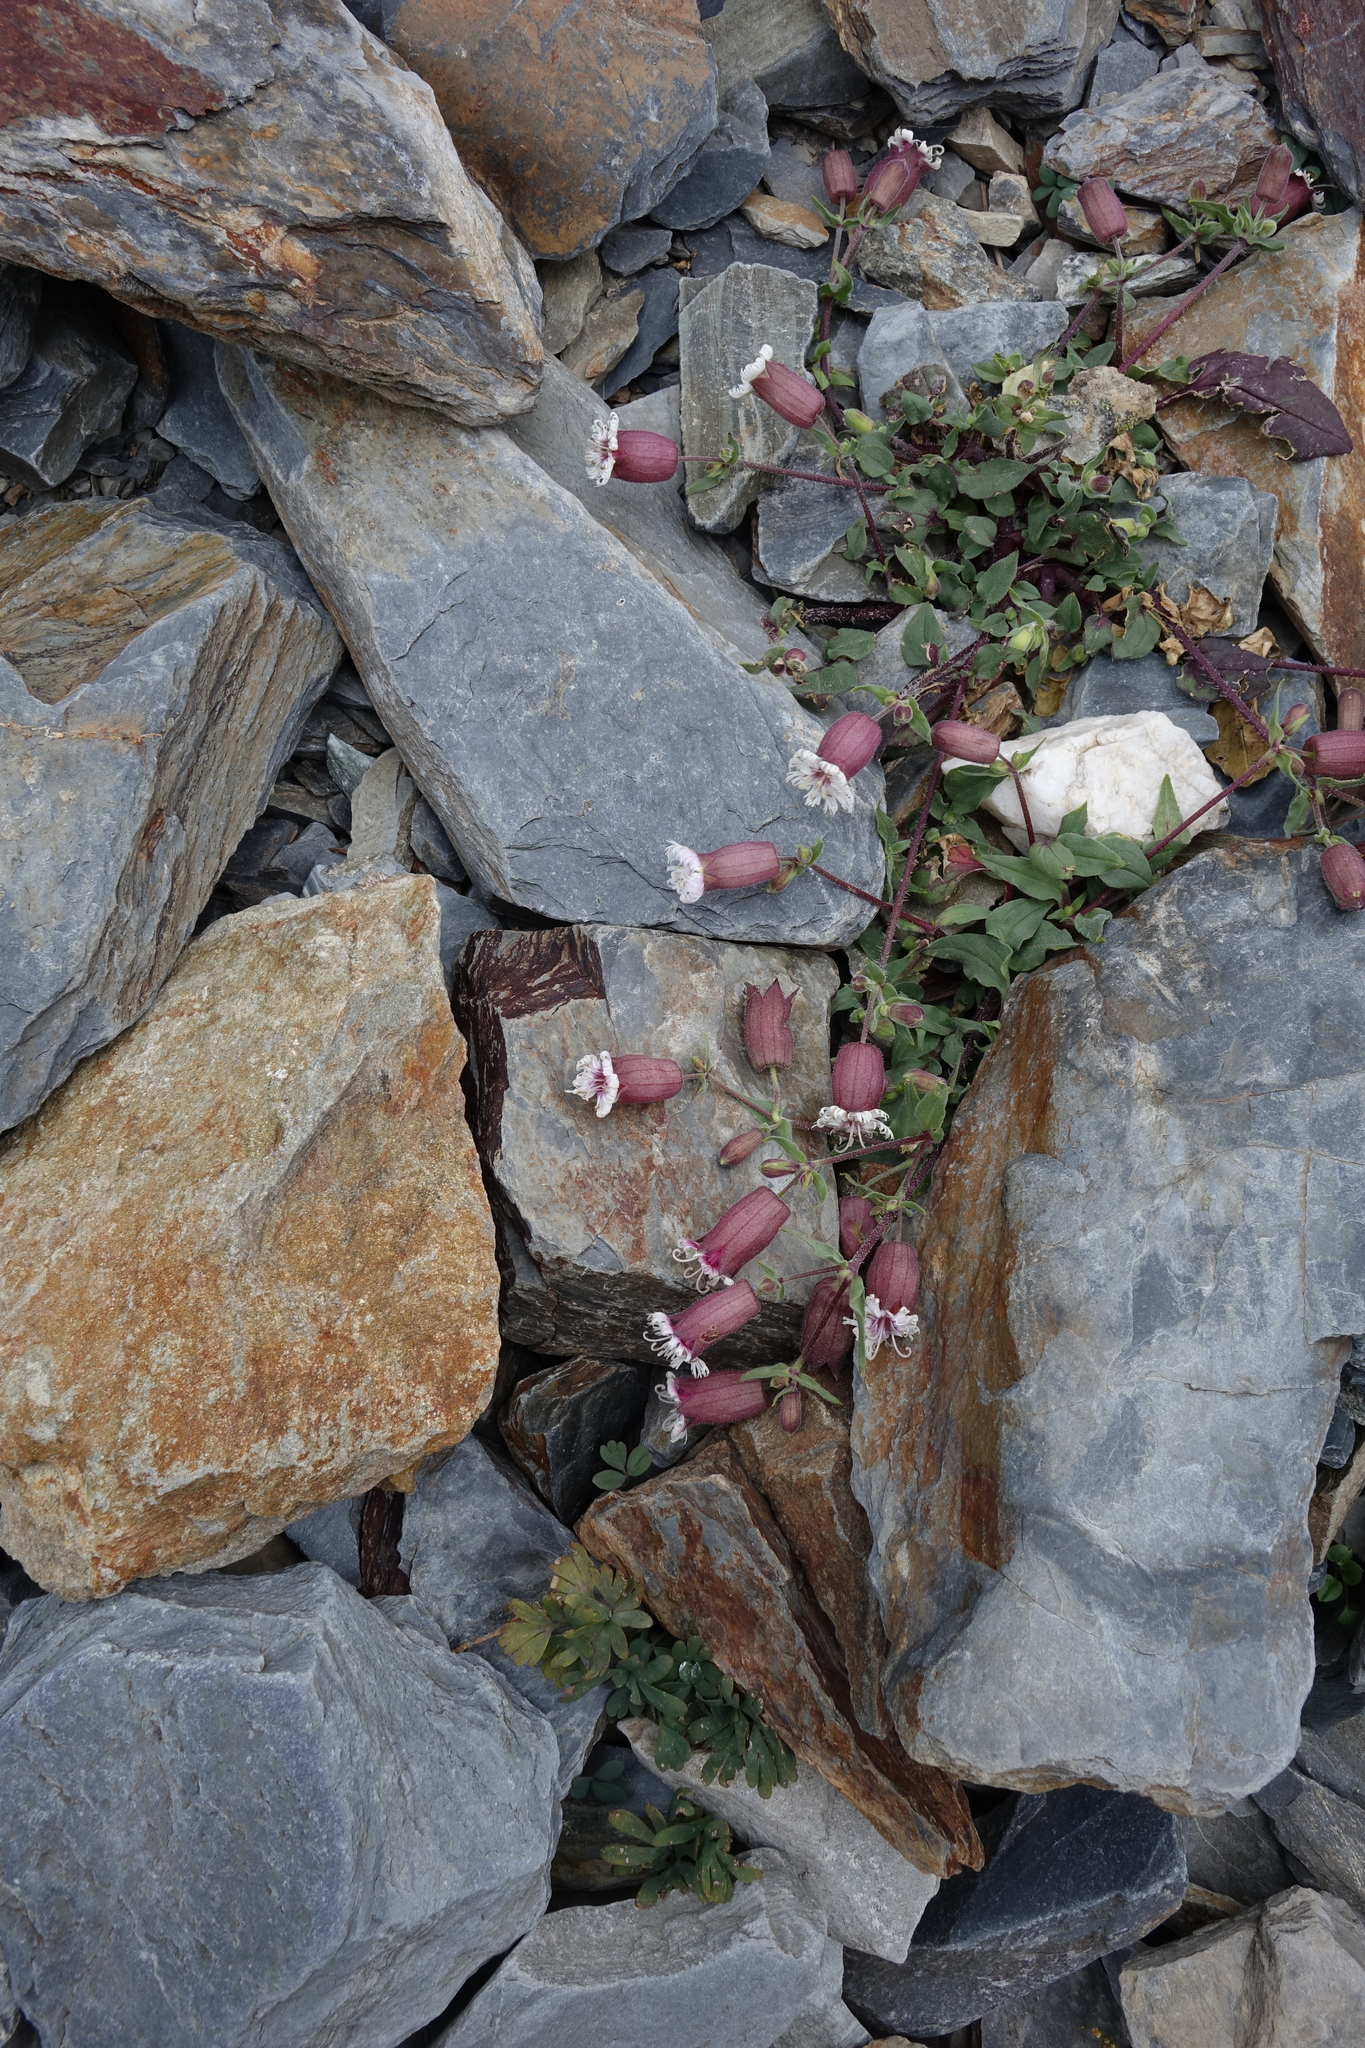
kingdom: Plantae
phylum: Tracheophyta
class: Magnoliopsida
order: Caryophyllales
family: Caryophyllaceae
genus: Silene
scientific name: Silene lacera
